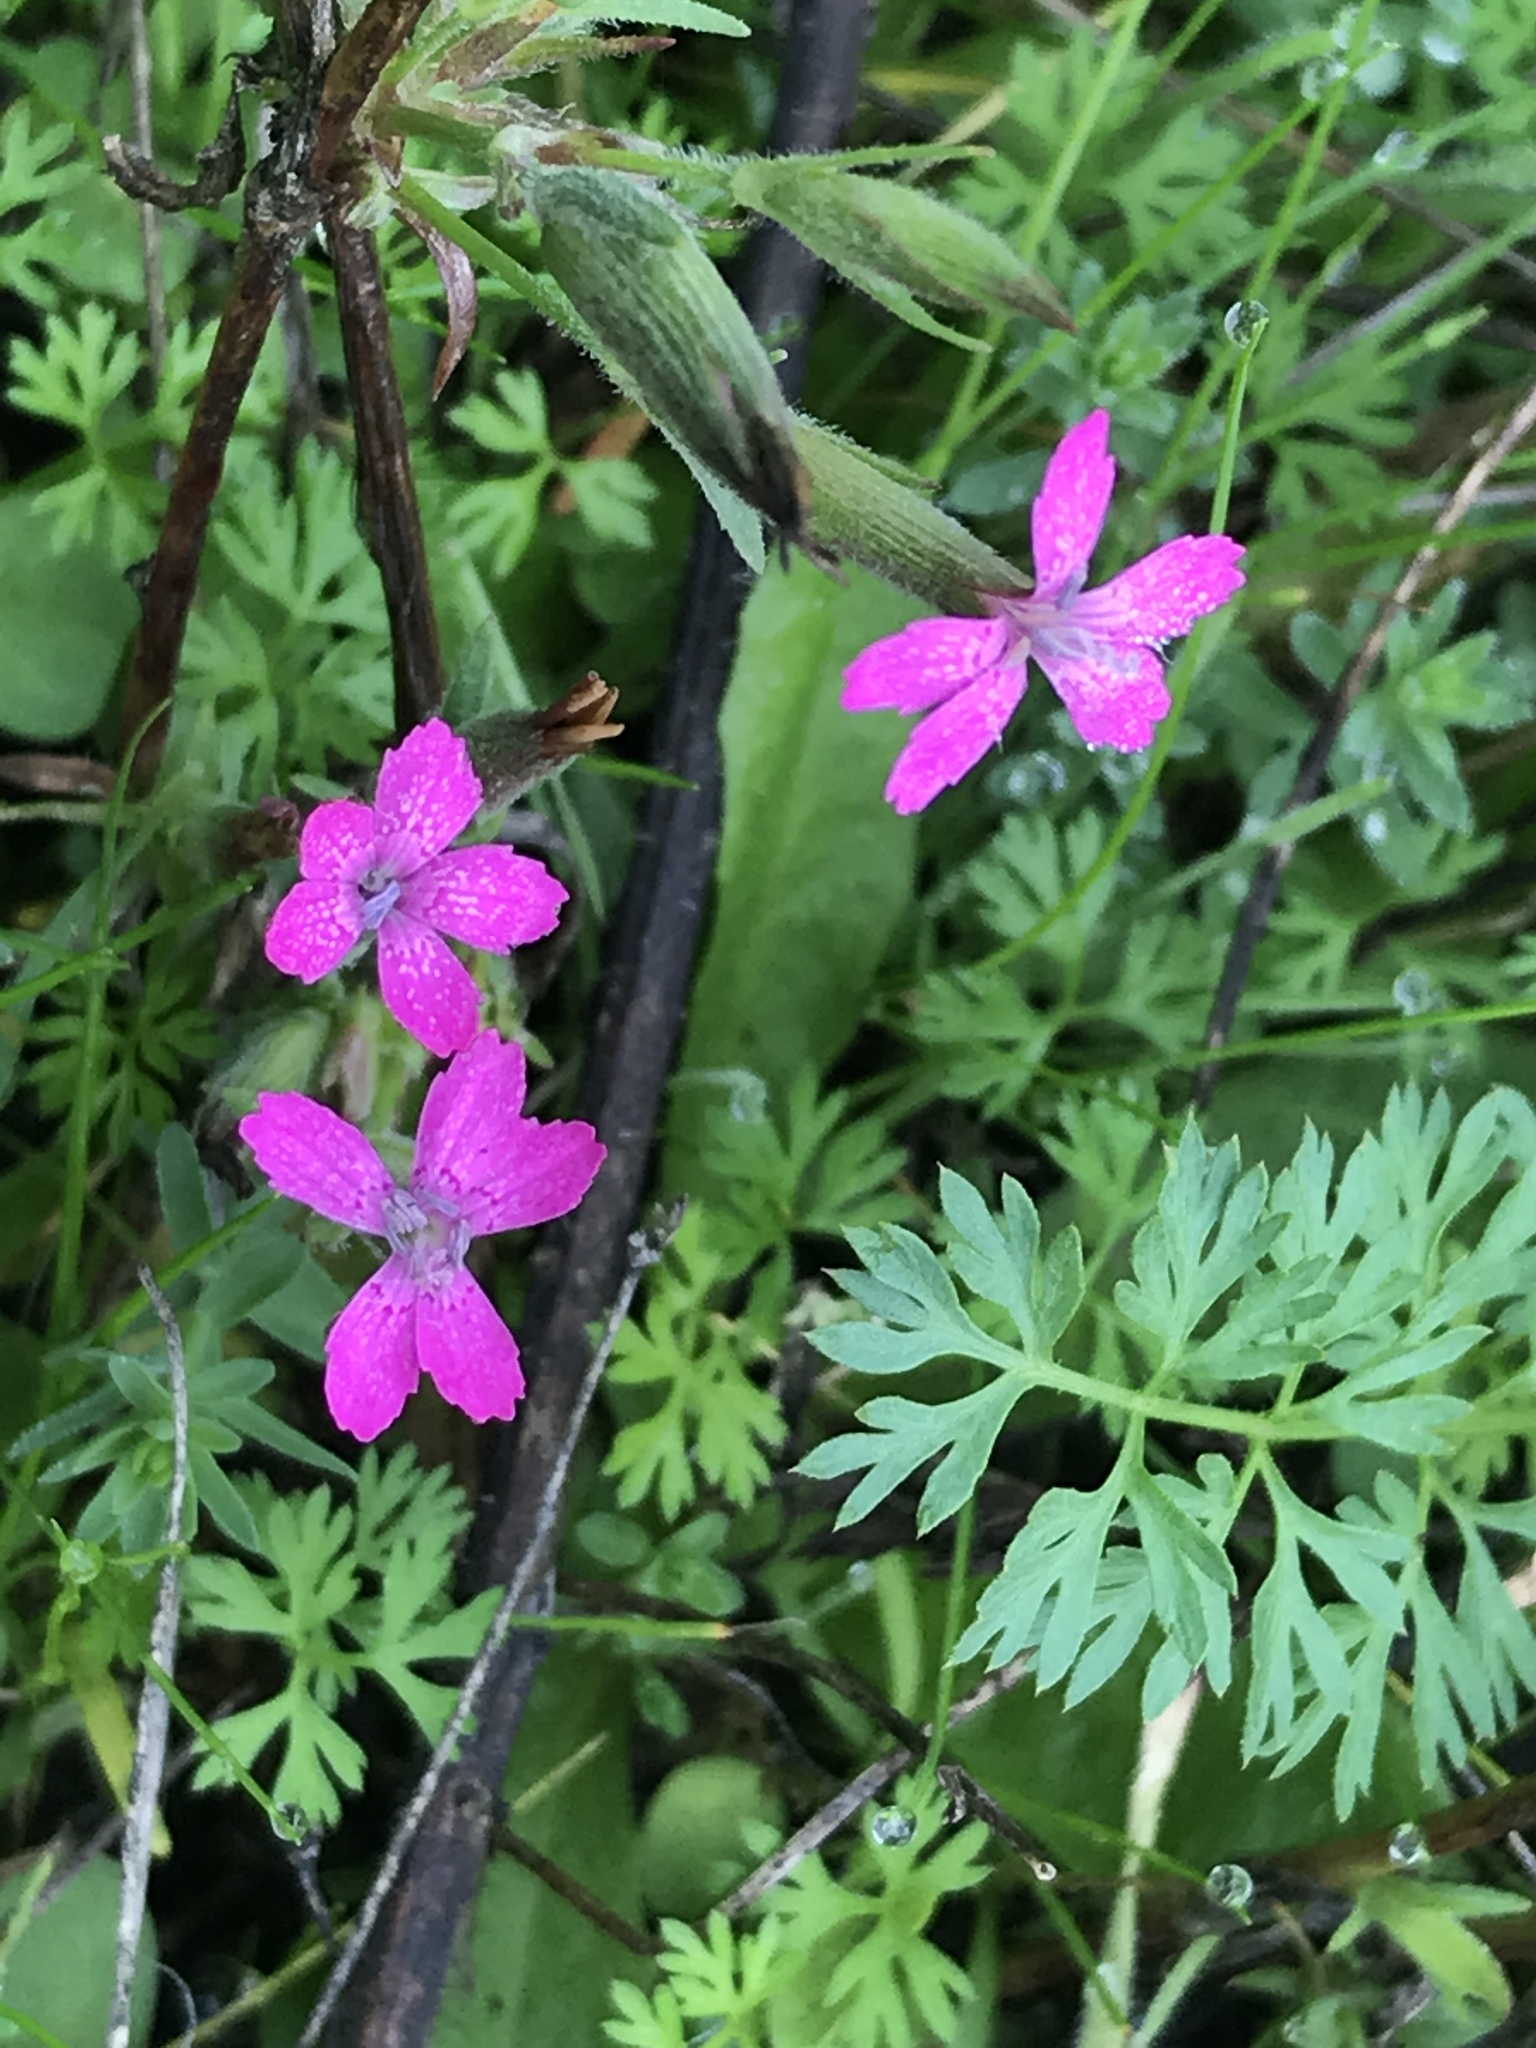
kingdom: Plantae
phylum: Tracheophyta
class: Magnoliopsida
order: Caryophyllales
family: Caryophyllaceae
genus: Dianthus
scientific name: Dianthus armeria
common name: Deptford pink
